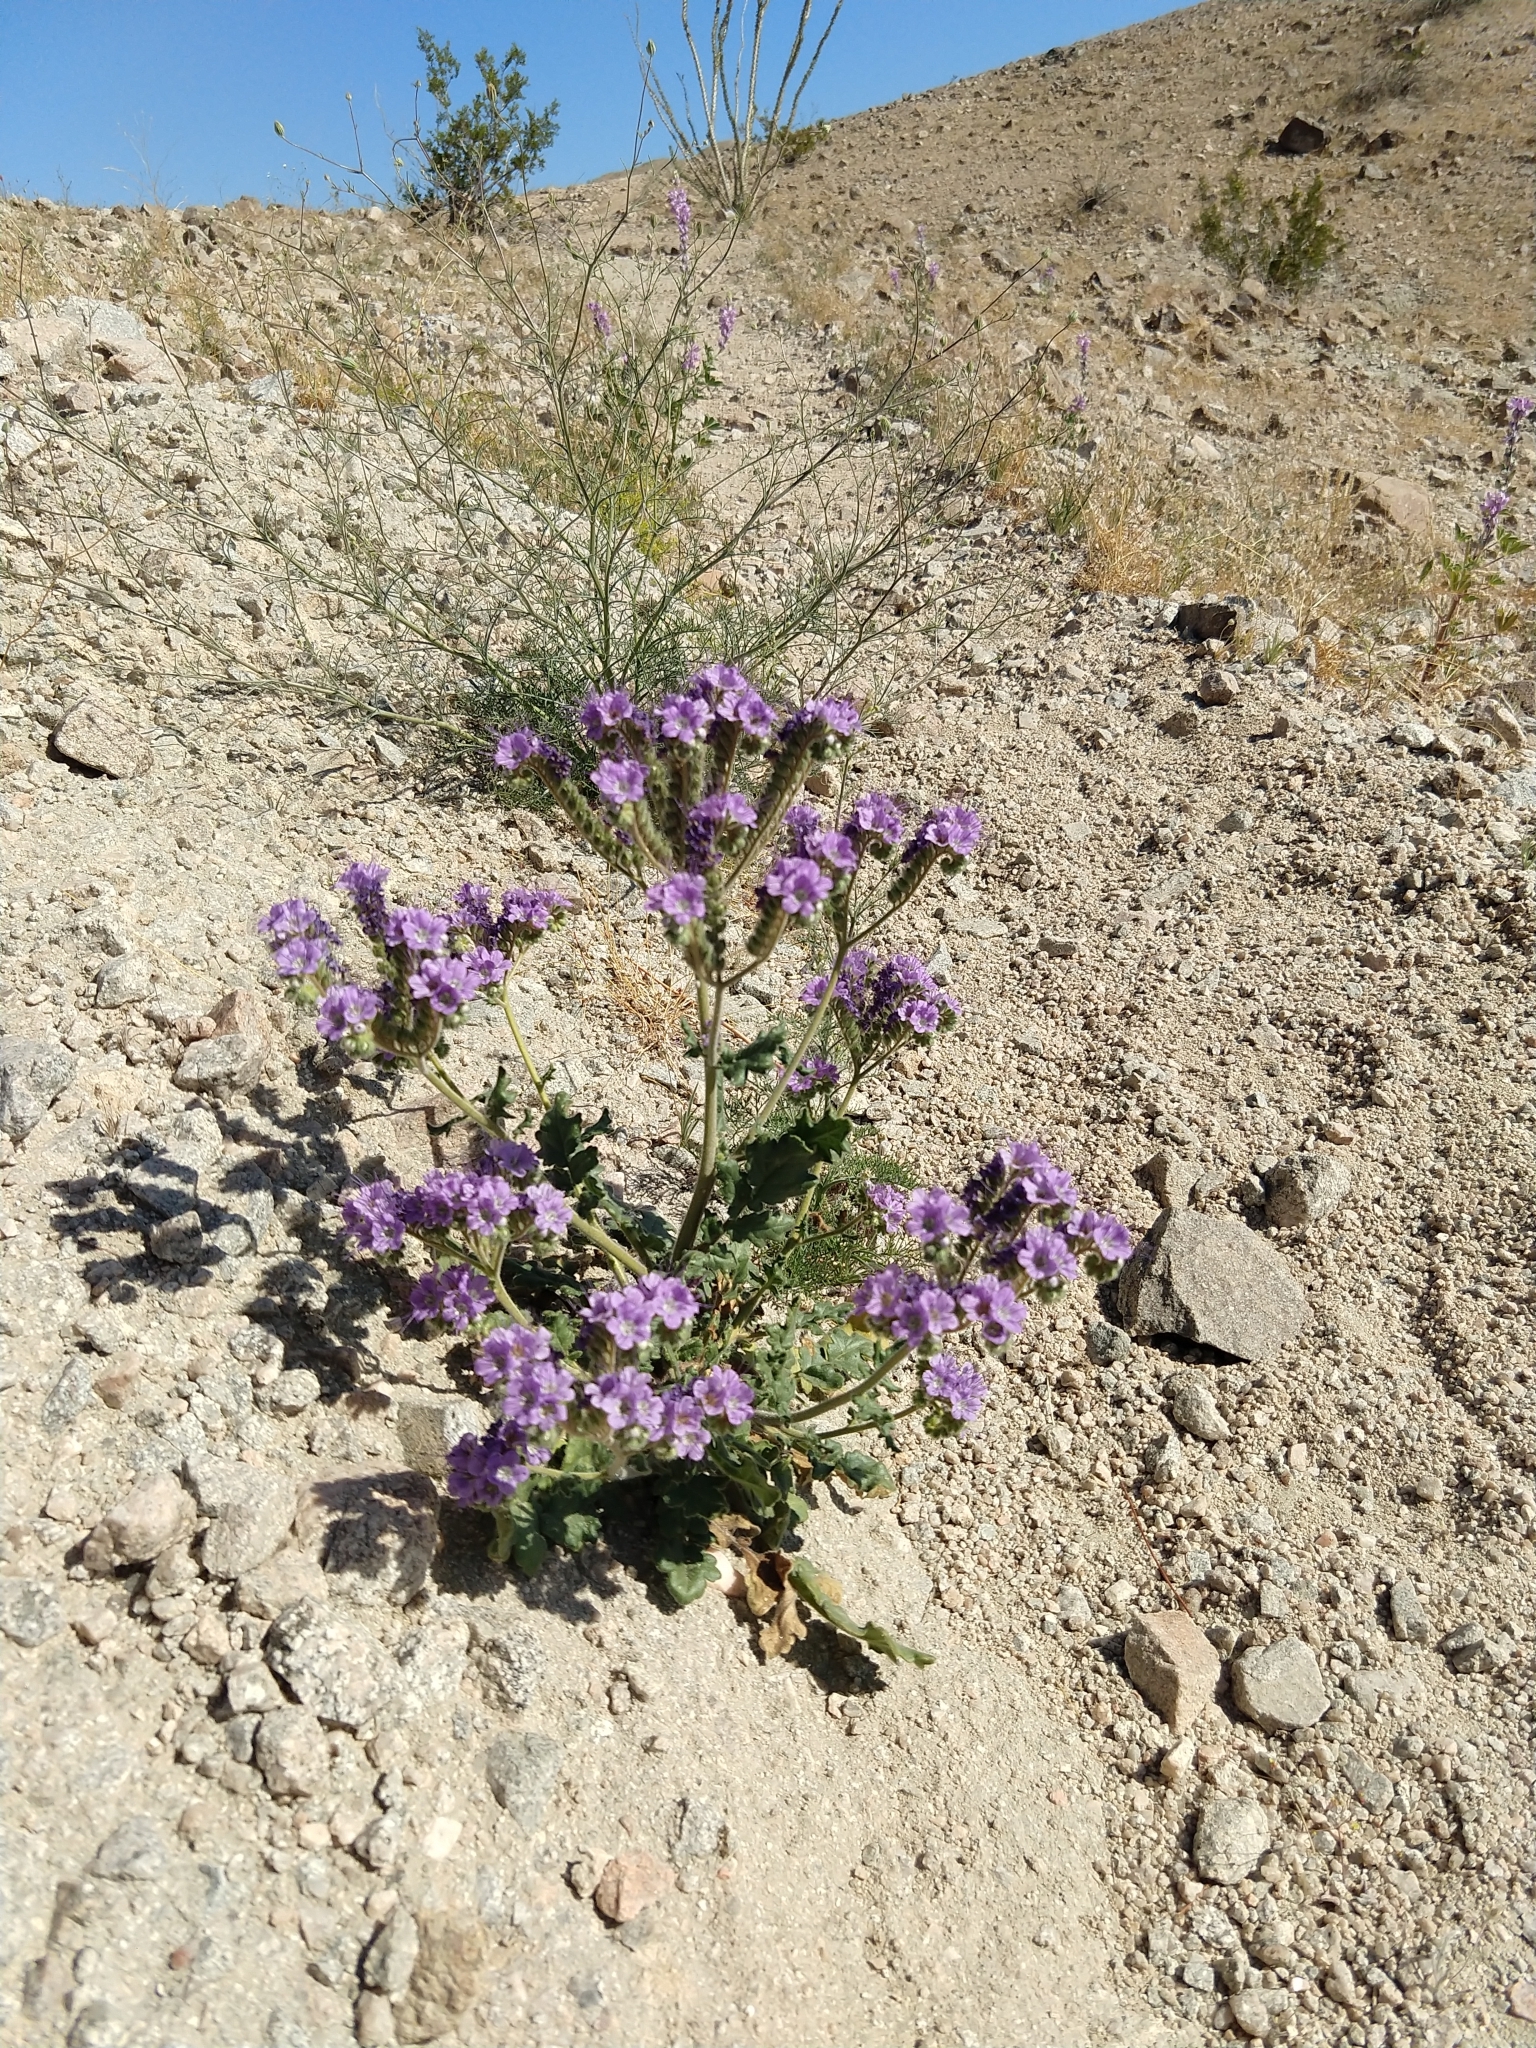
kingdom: Plantae
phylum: Tracheophyta
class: Magnoliopsida
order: Boraginales
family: Hydrophyllaceae
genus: Phacelia
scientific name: Phacelia crenulata
